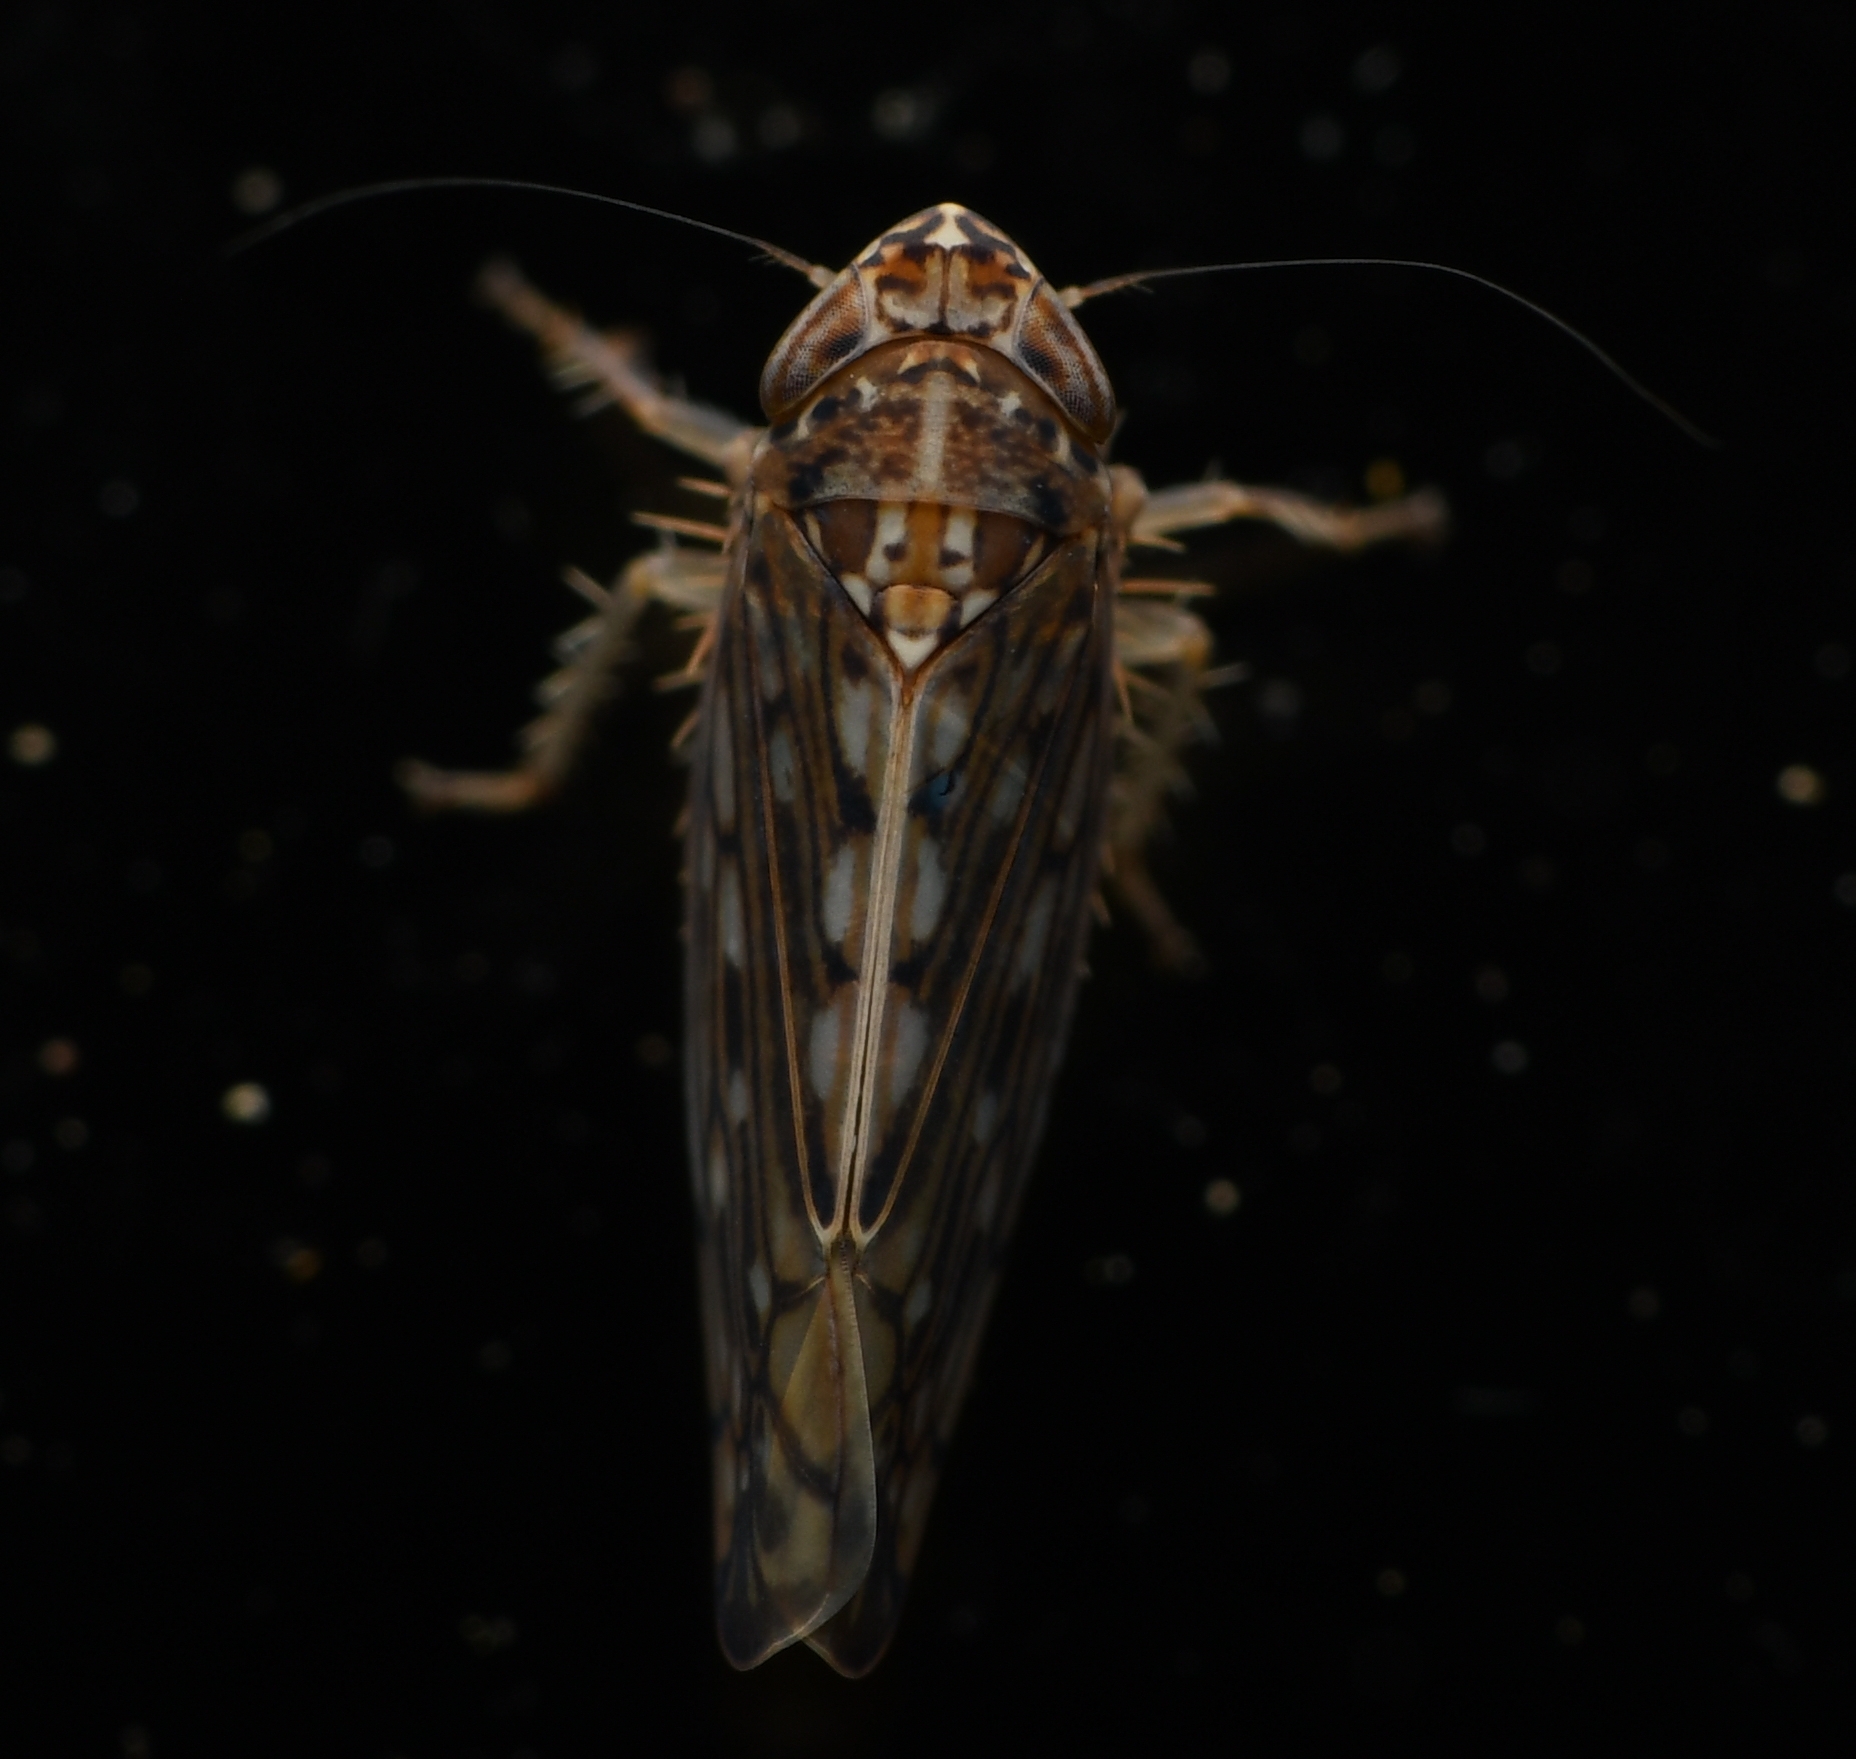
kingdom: Animalia
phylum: Arthropoda
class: Insecta
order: Hemiptera
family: Cicadellidae
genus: Osbornellus
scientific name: Osbornellus clarus
